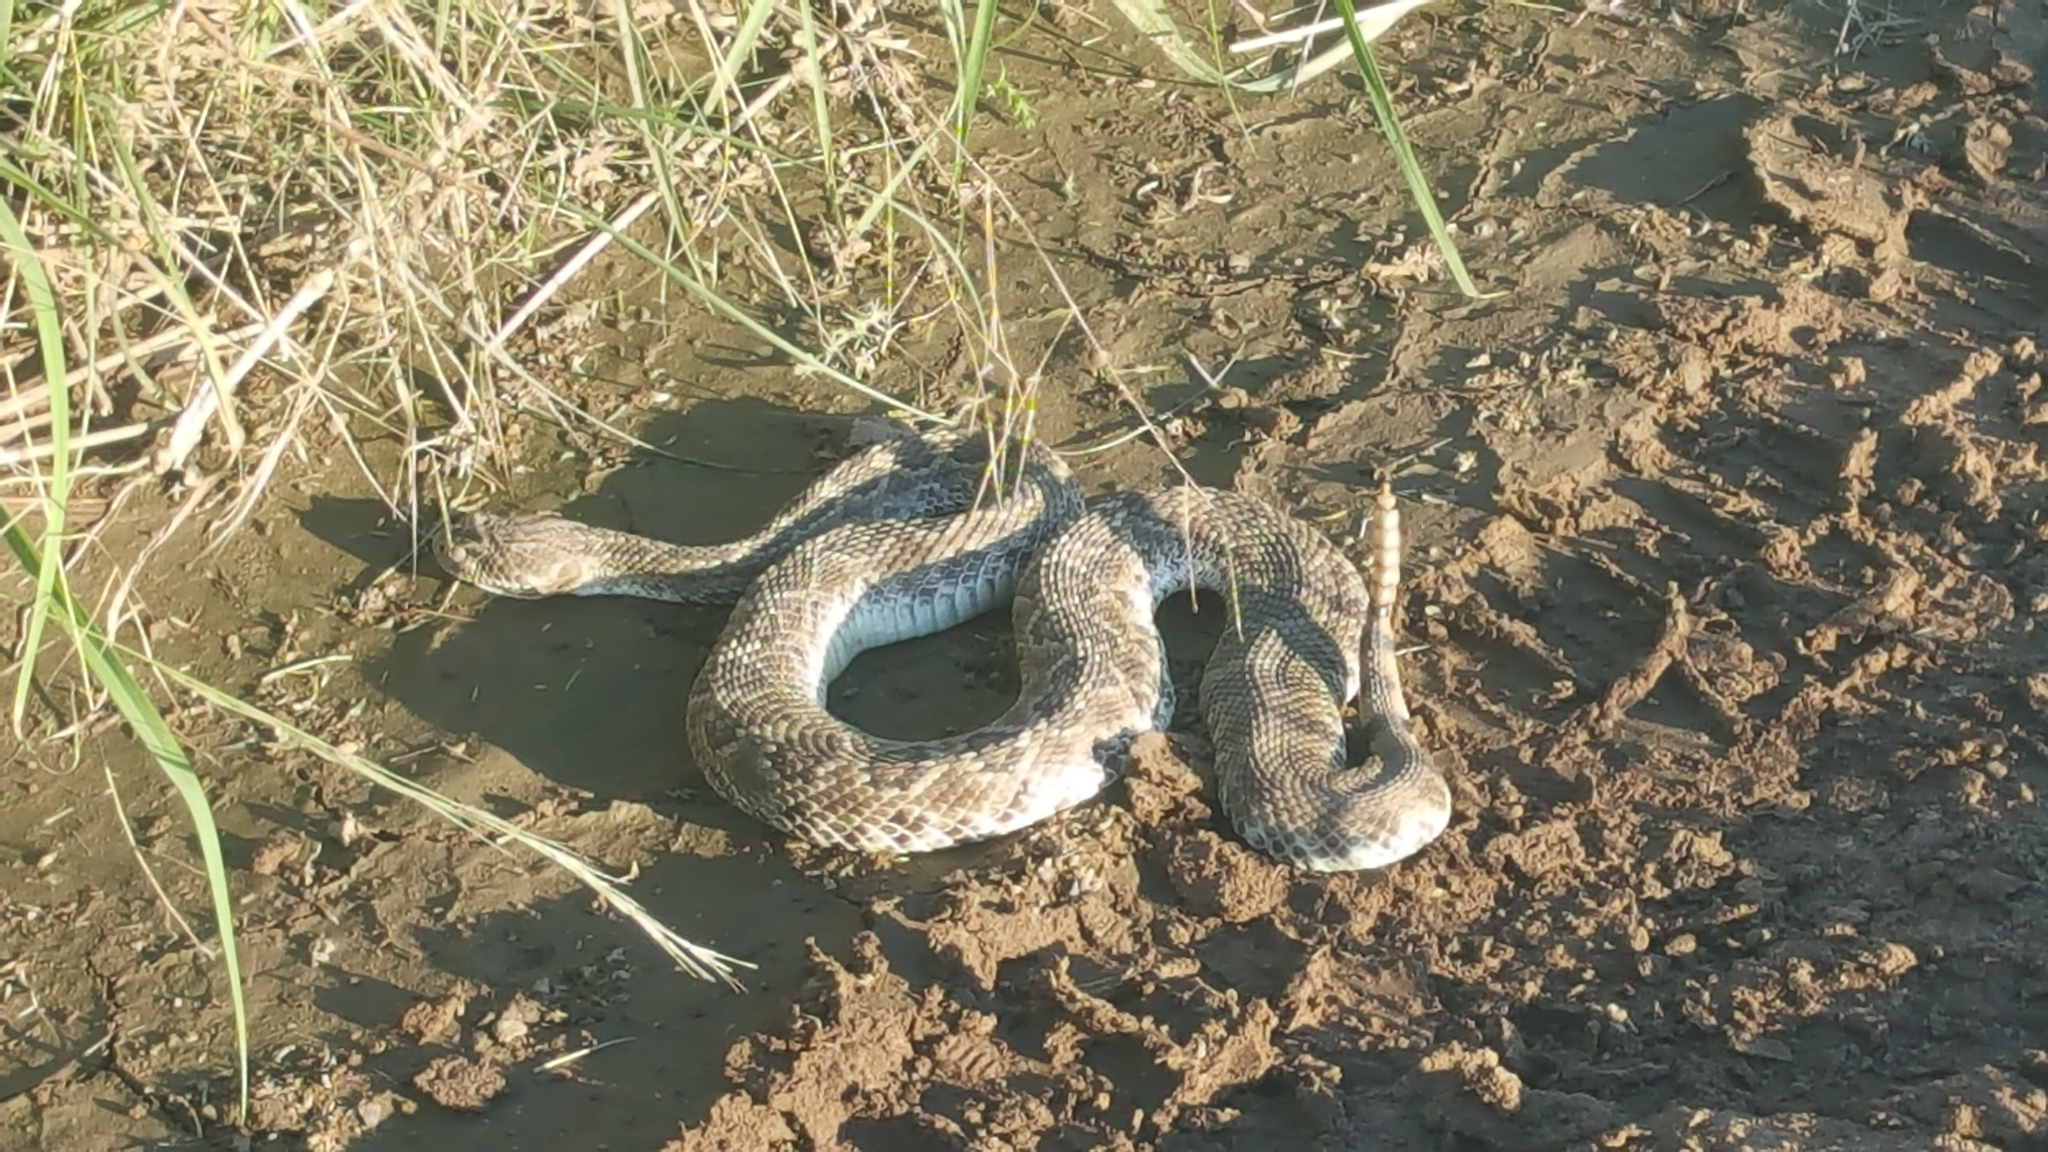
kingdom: Animalia
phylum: Chordata
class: Squamata
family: Viperidae
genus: Crotalus
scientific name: Crotalus atrox
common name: Western diamond-backed rattlesnake
